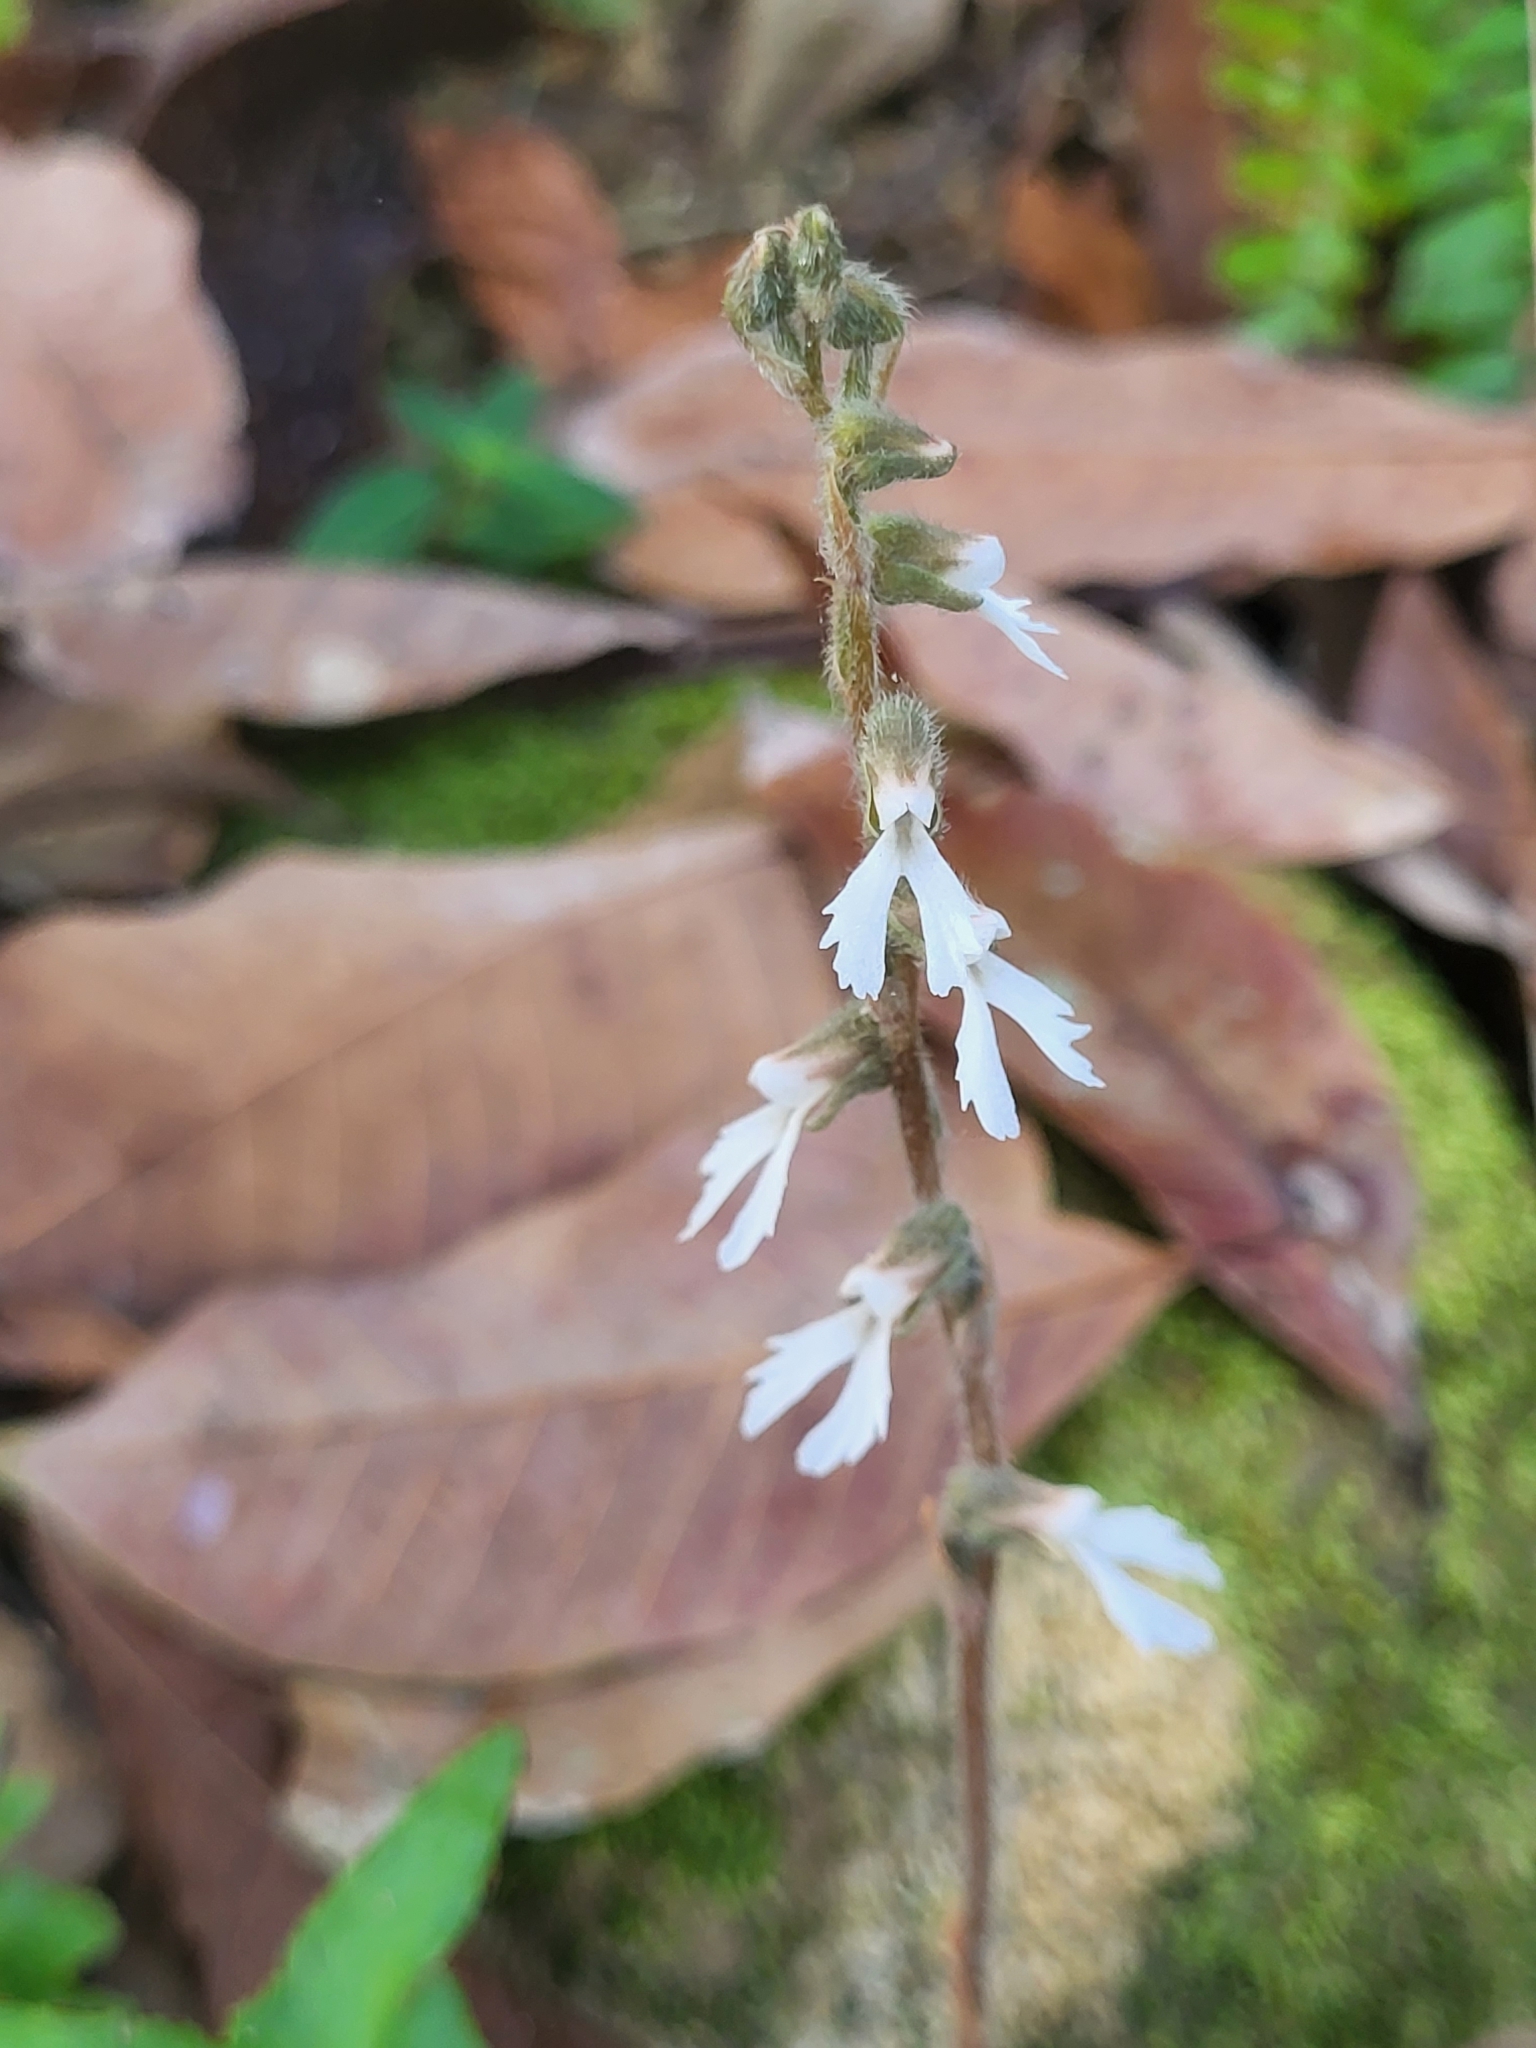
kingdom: Plantae
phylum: Tracheophyta
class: Liliopsida
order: Asparagales
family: Orchidaceae
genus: Zeuxine
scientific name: Zeuxine longilabris
